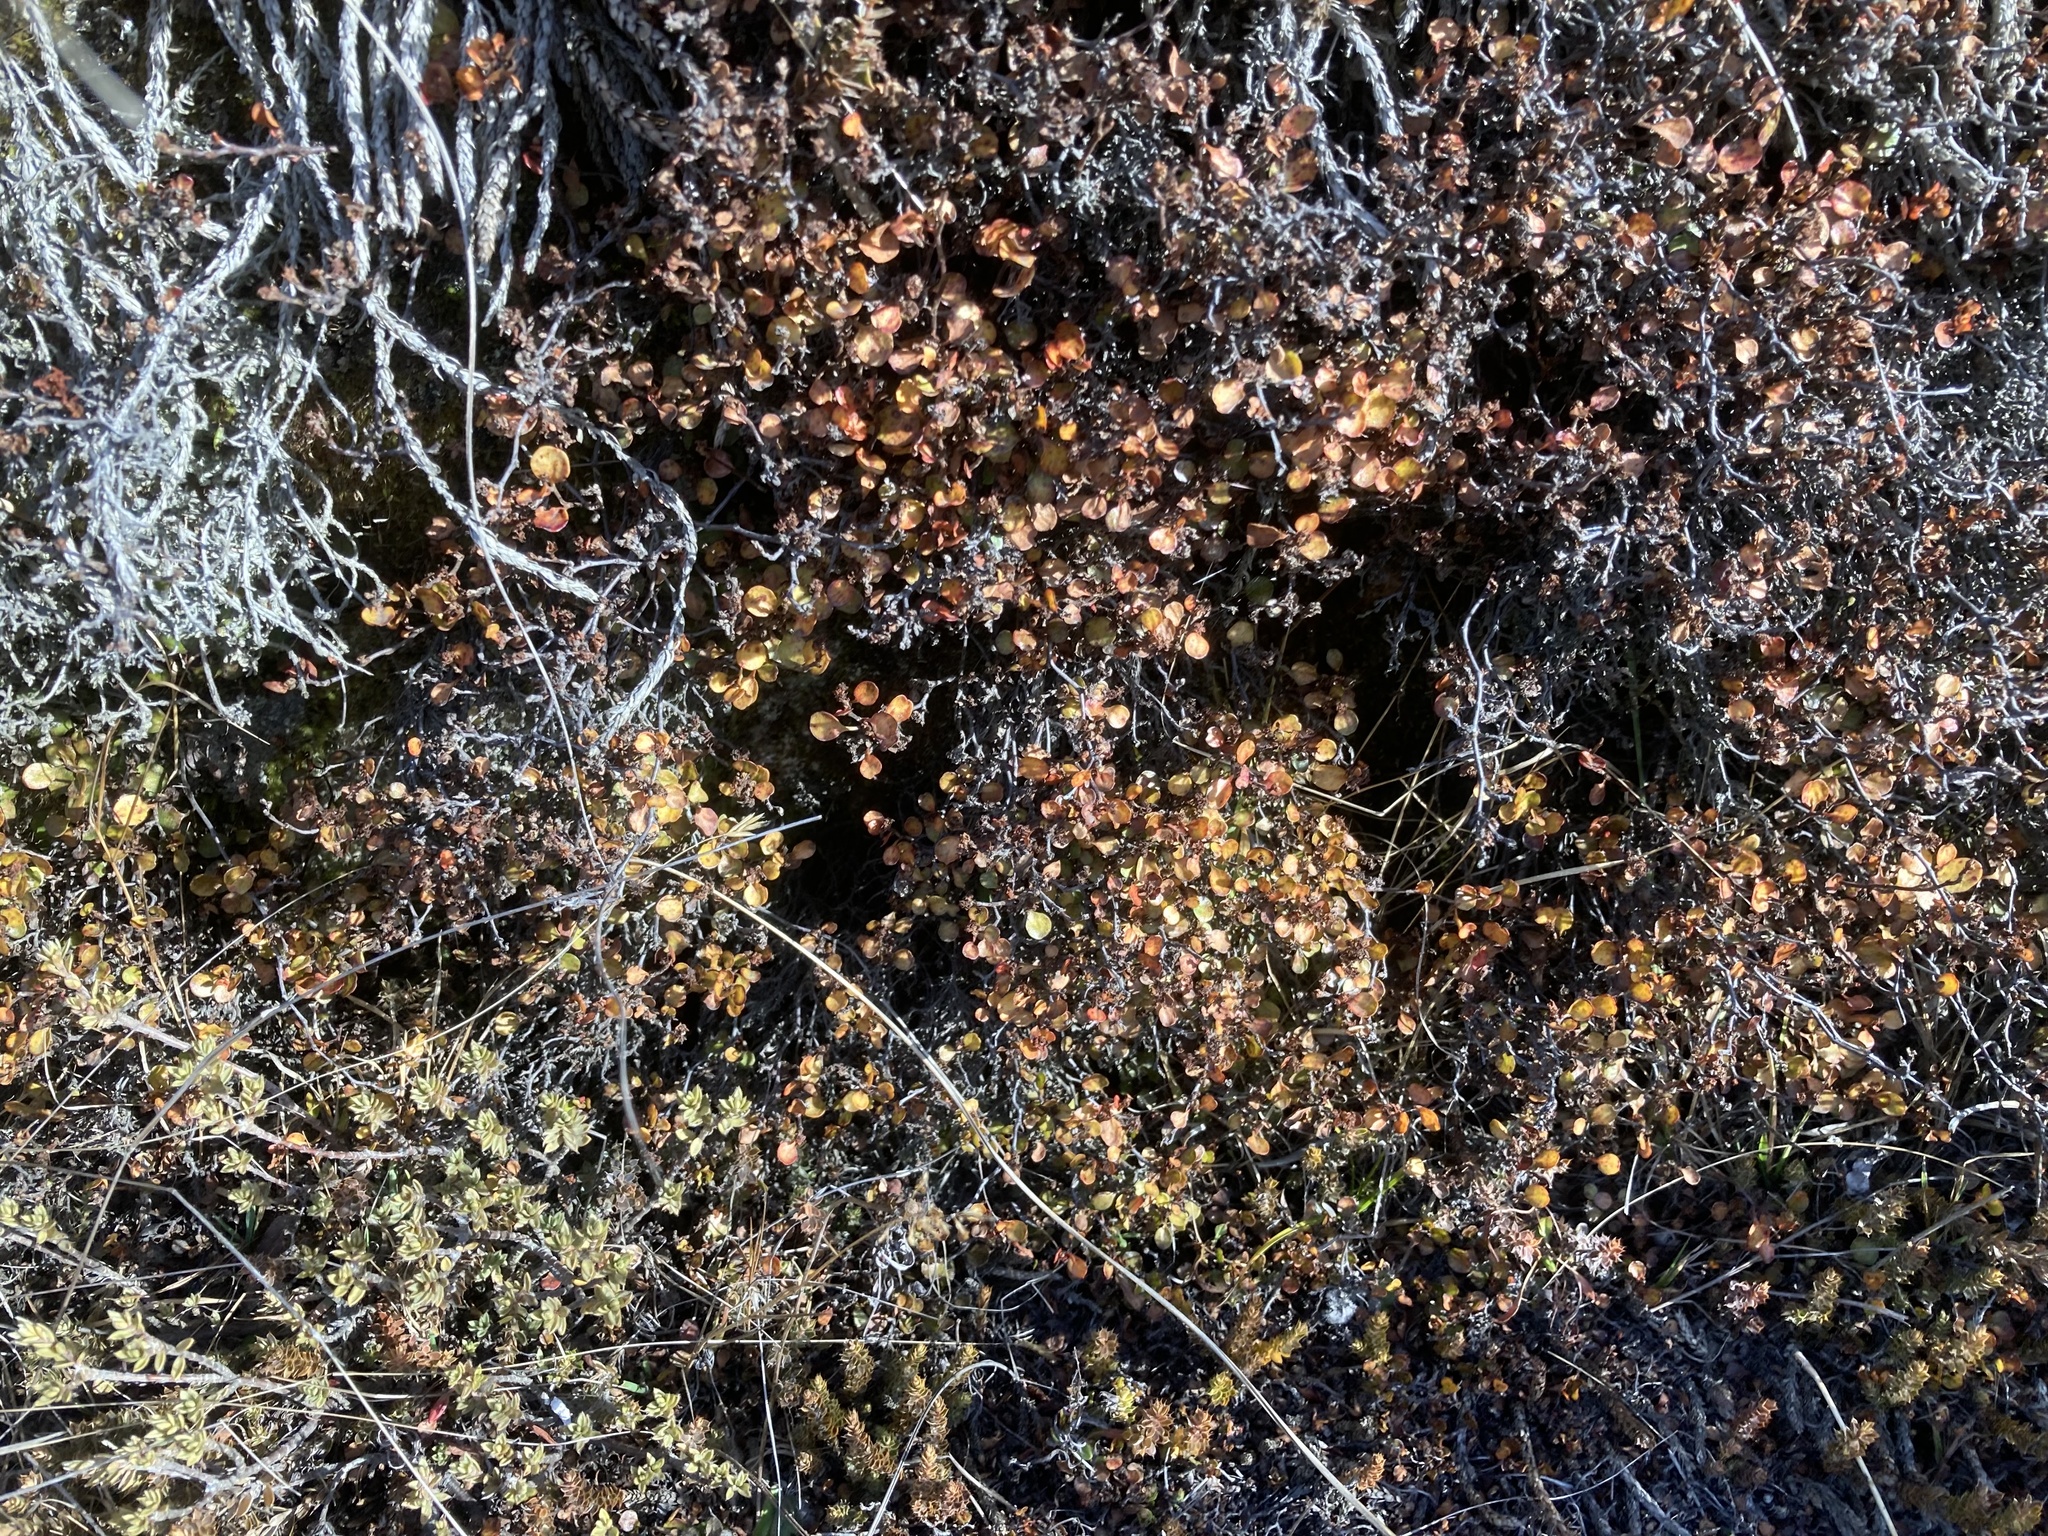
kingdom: Plantae
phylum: Tracheophyta
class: Magnoliopsida
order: Caryophyllales
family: Polygonaceae
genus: Muehlenbeckia
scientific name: Muehlenbeckia axillaris
